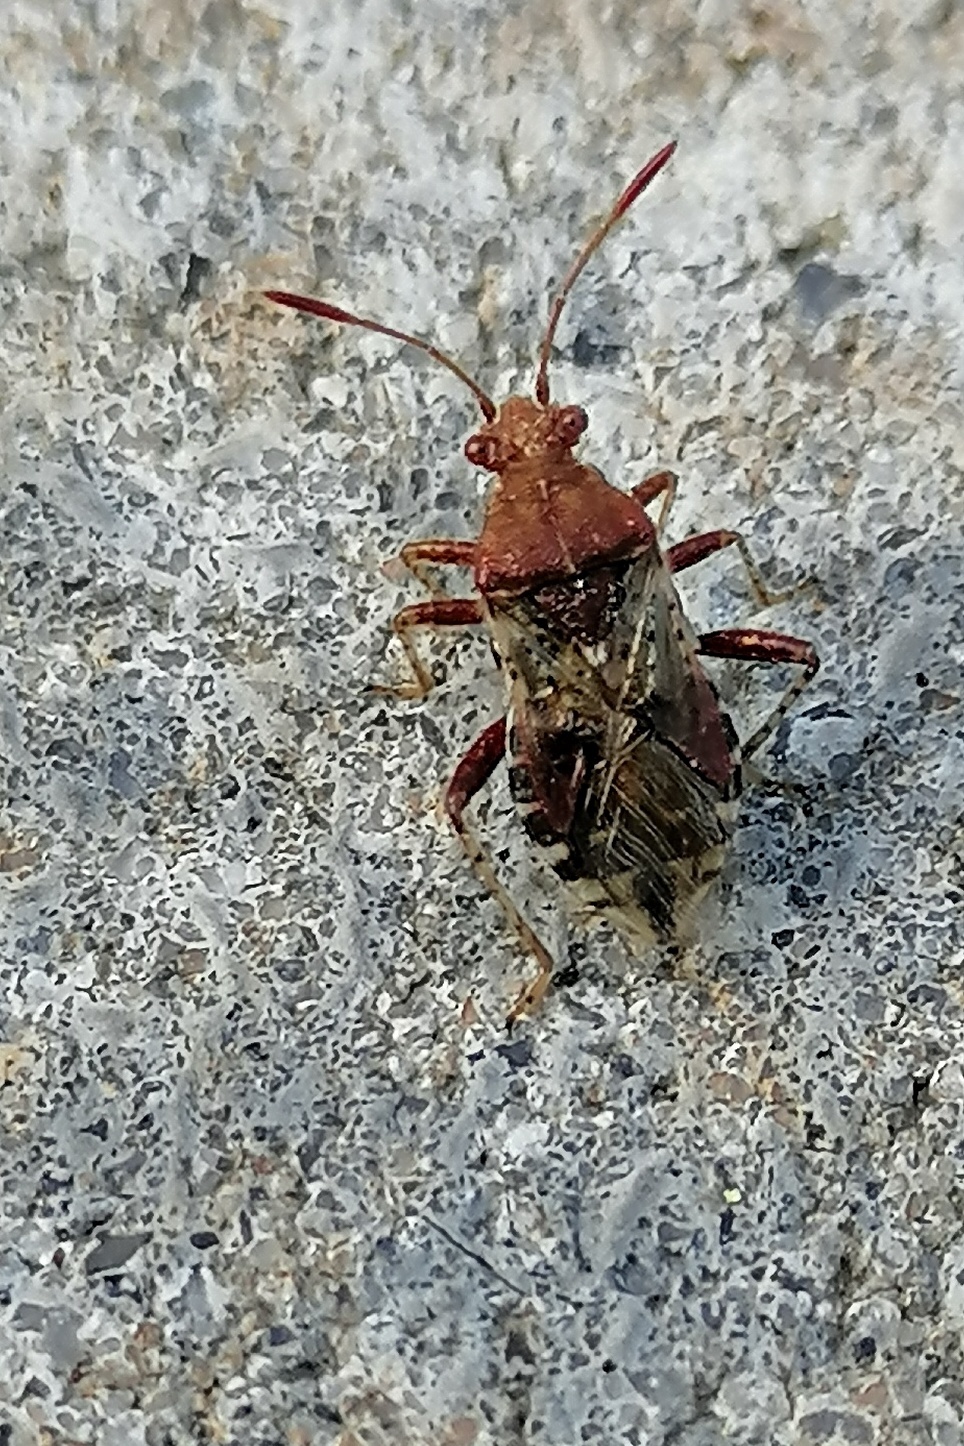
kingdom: Animalia
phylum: Arthropoda
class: Insecta
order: Hemiptera
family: Rhopalidae
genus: Rhopalus
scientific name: Rhopalus subrufus
